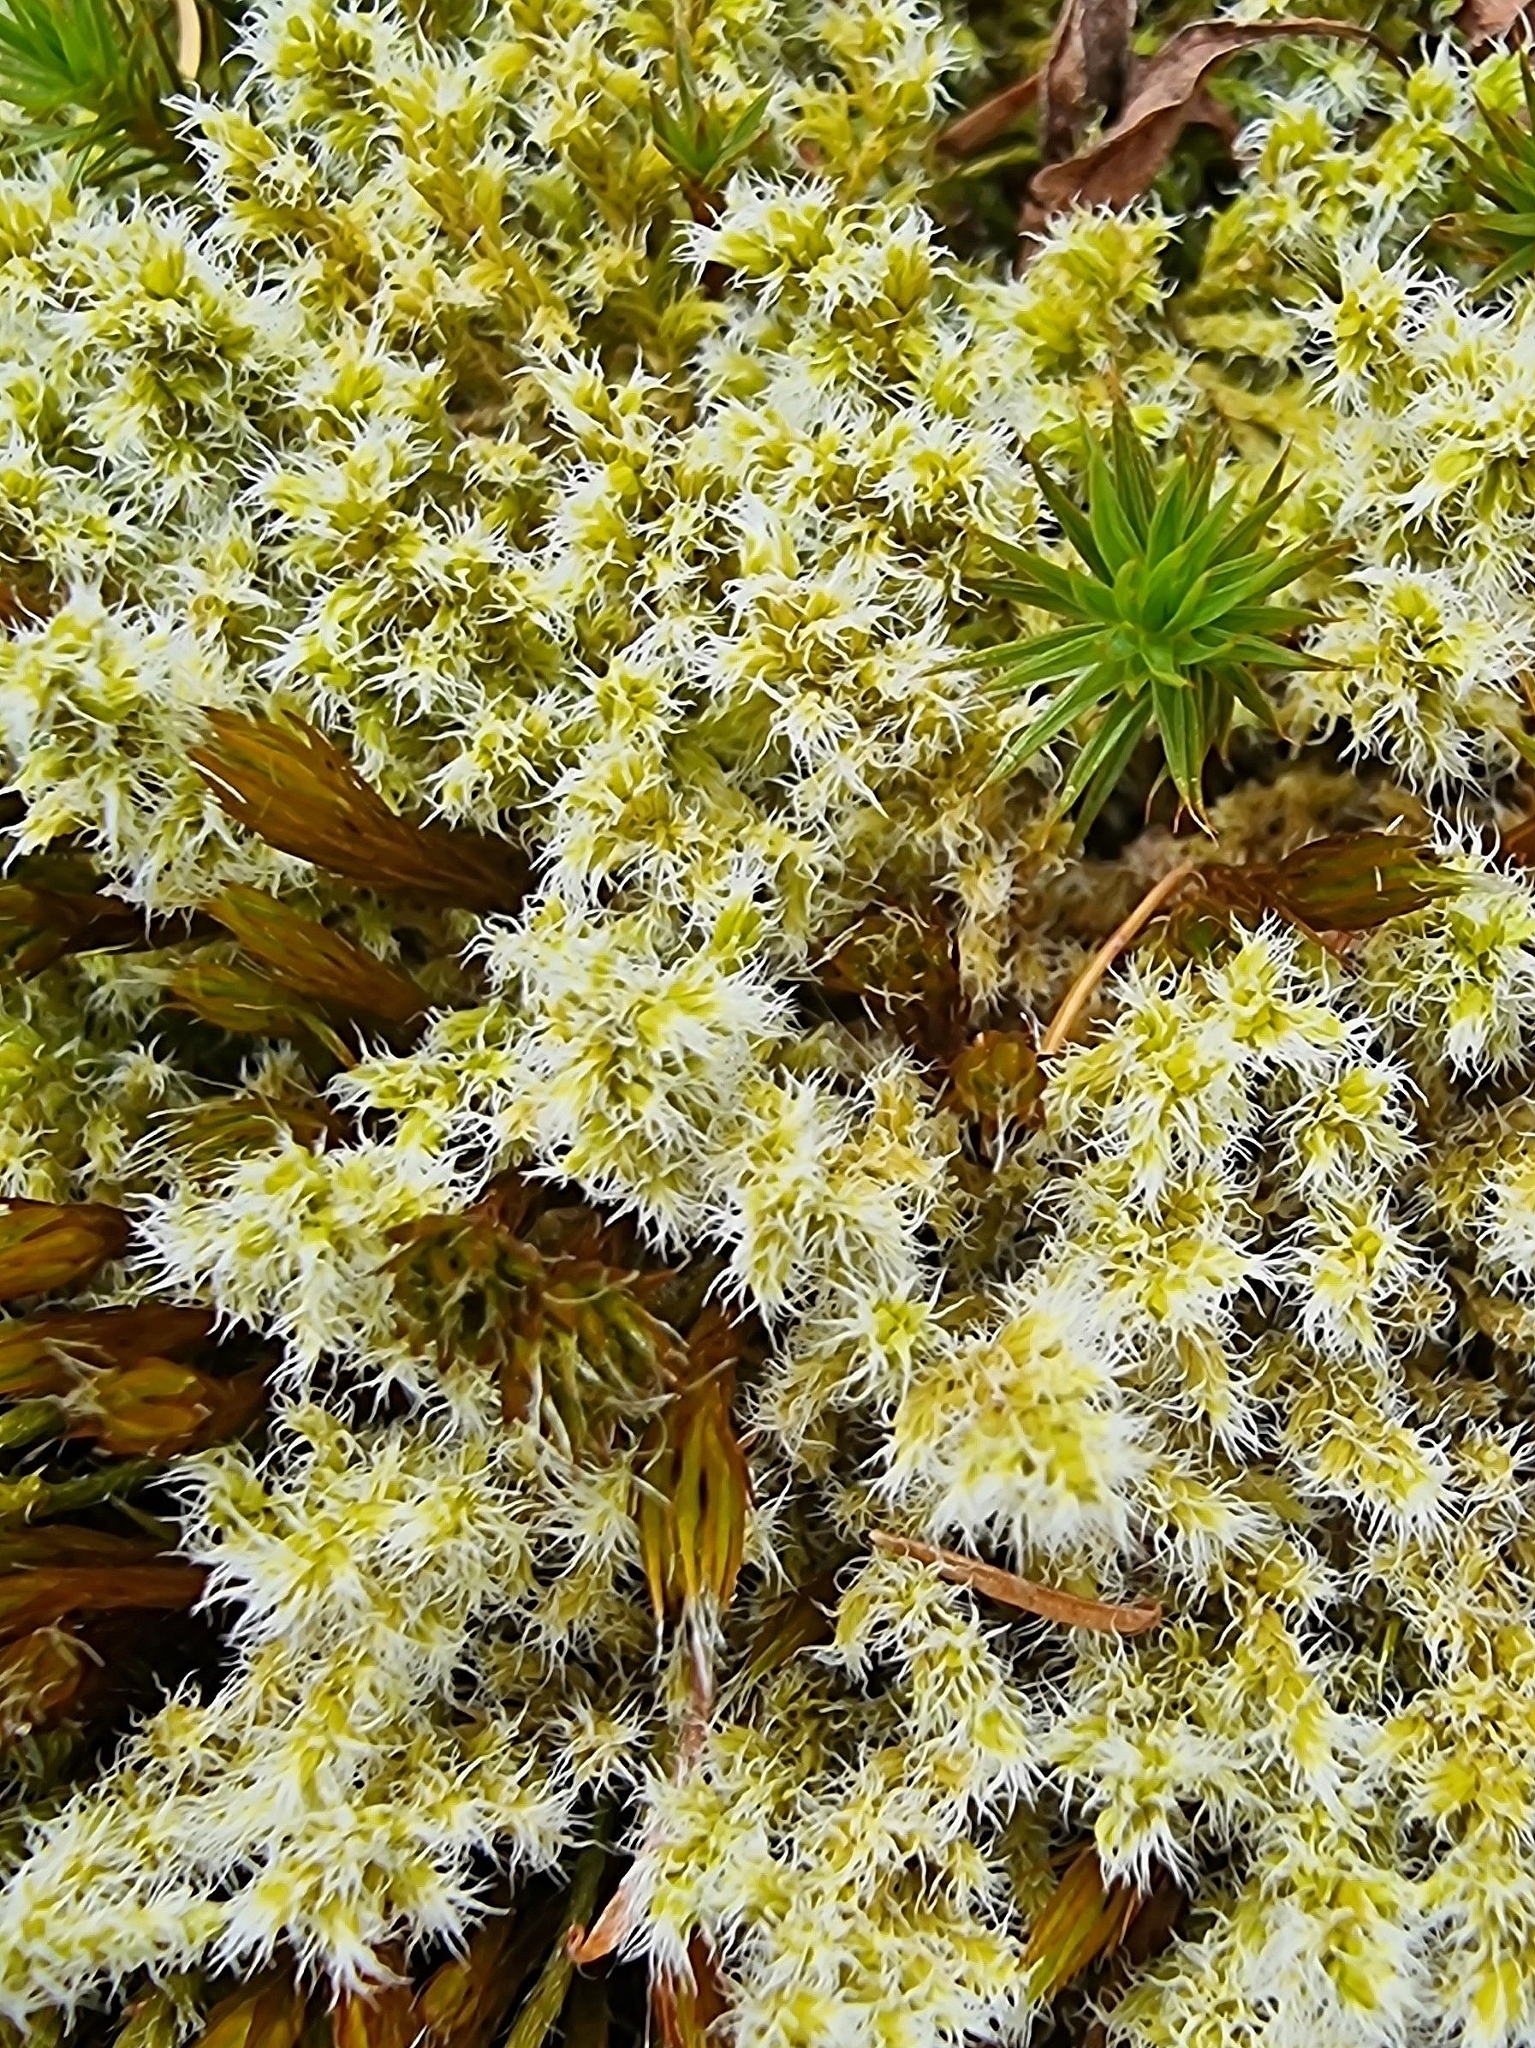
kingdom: Plantae
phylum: Bryophyta
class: Bryopsida
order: Grimmiales
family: Grimmiaceae
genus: Niphotrichum
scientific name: Niphotrichum elongatum
